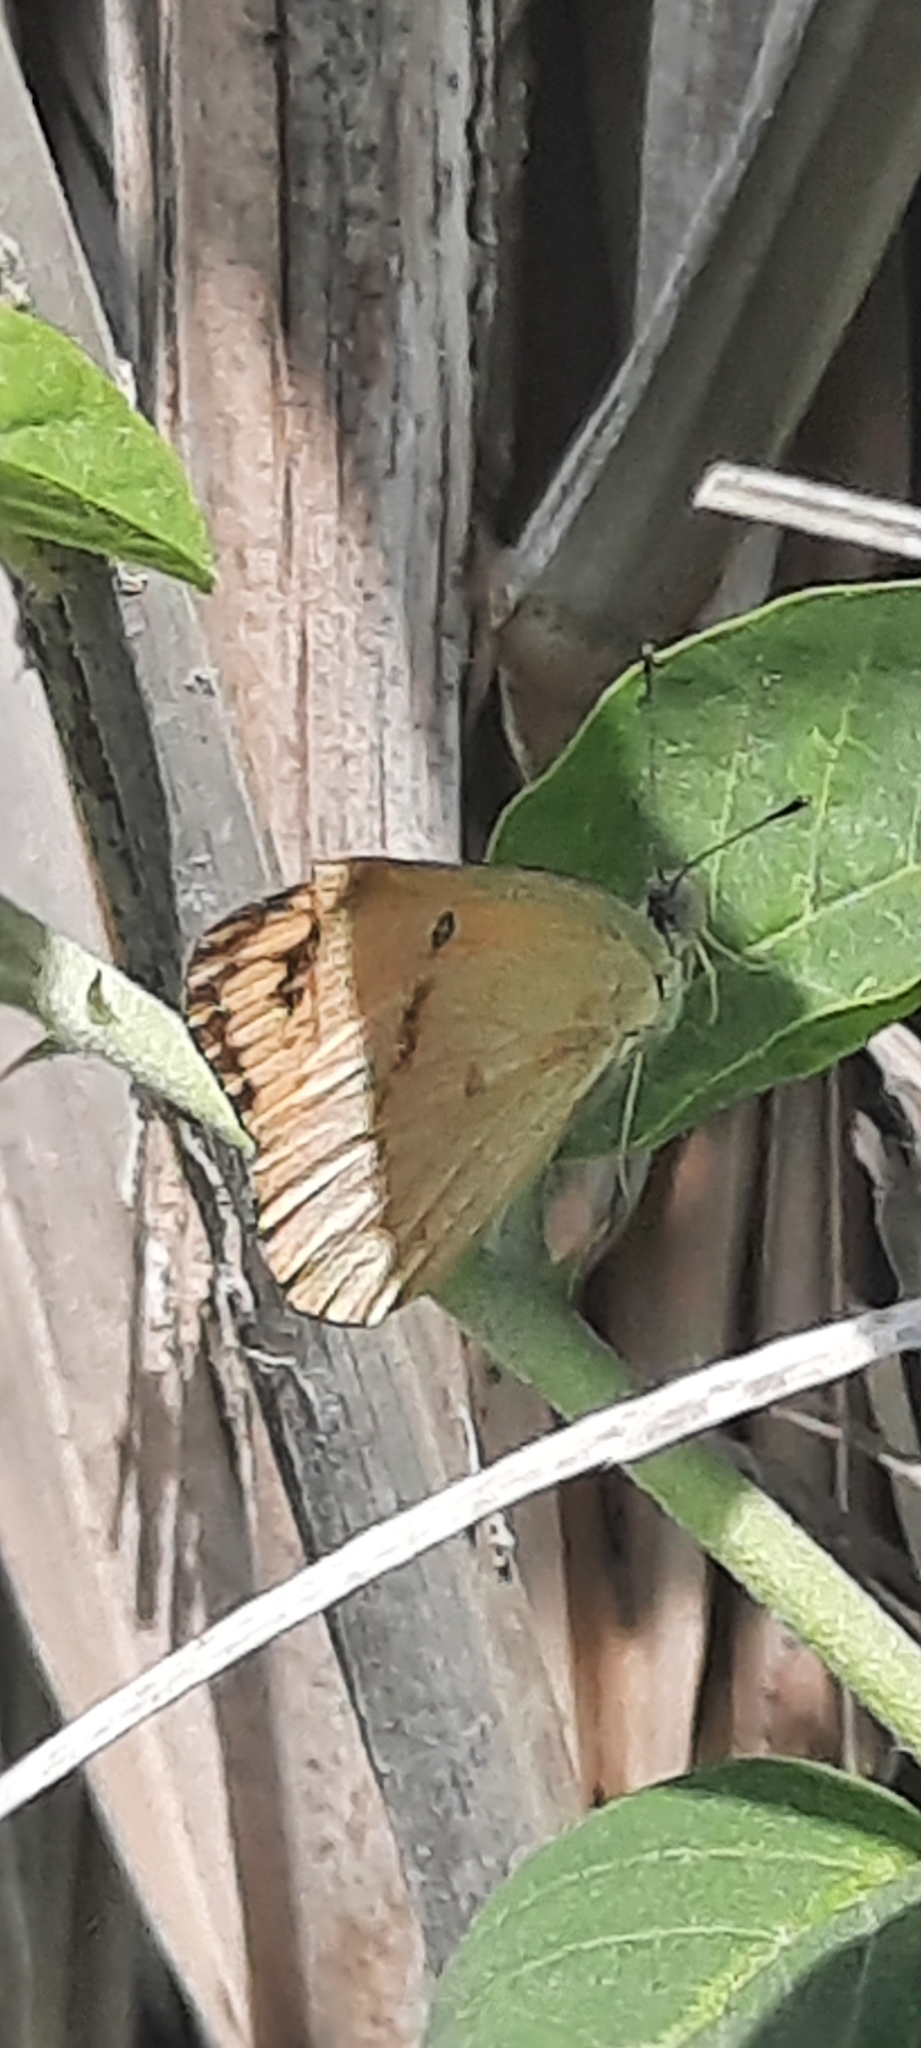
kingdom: Animalia
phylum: Arthropoda
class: Insecta
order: Lepidoptera
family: Pieridae
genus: Colotis
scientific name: Colotis fausta
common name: Large salmon arab
